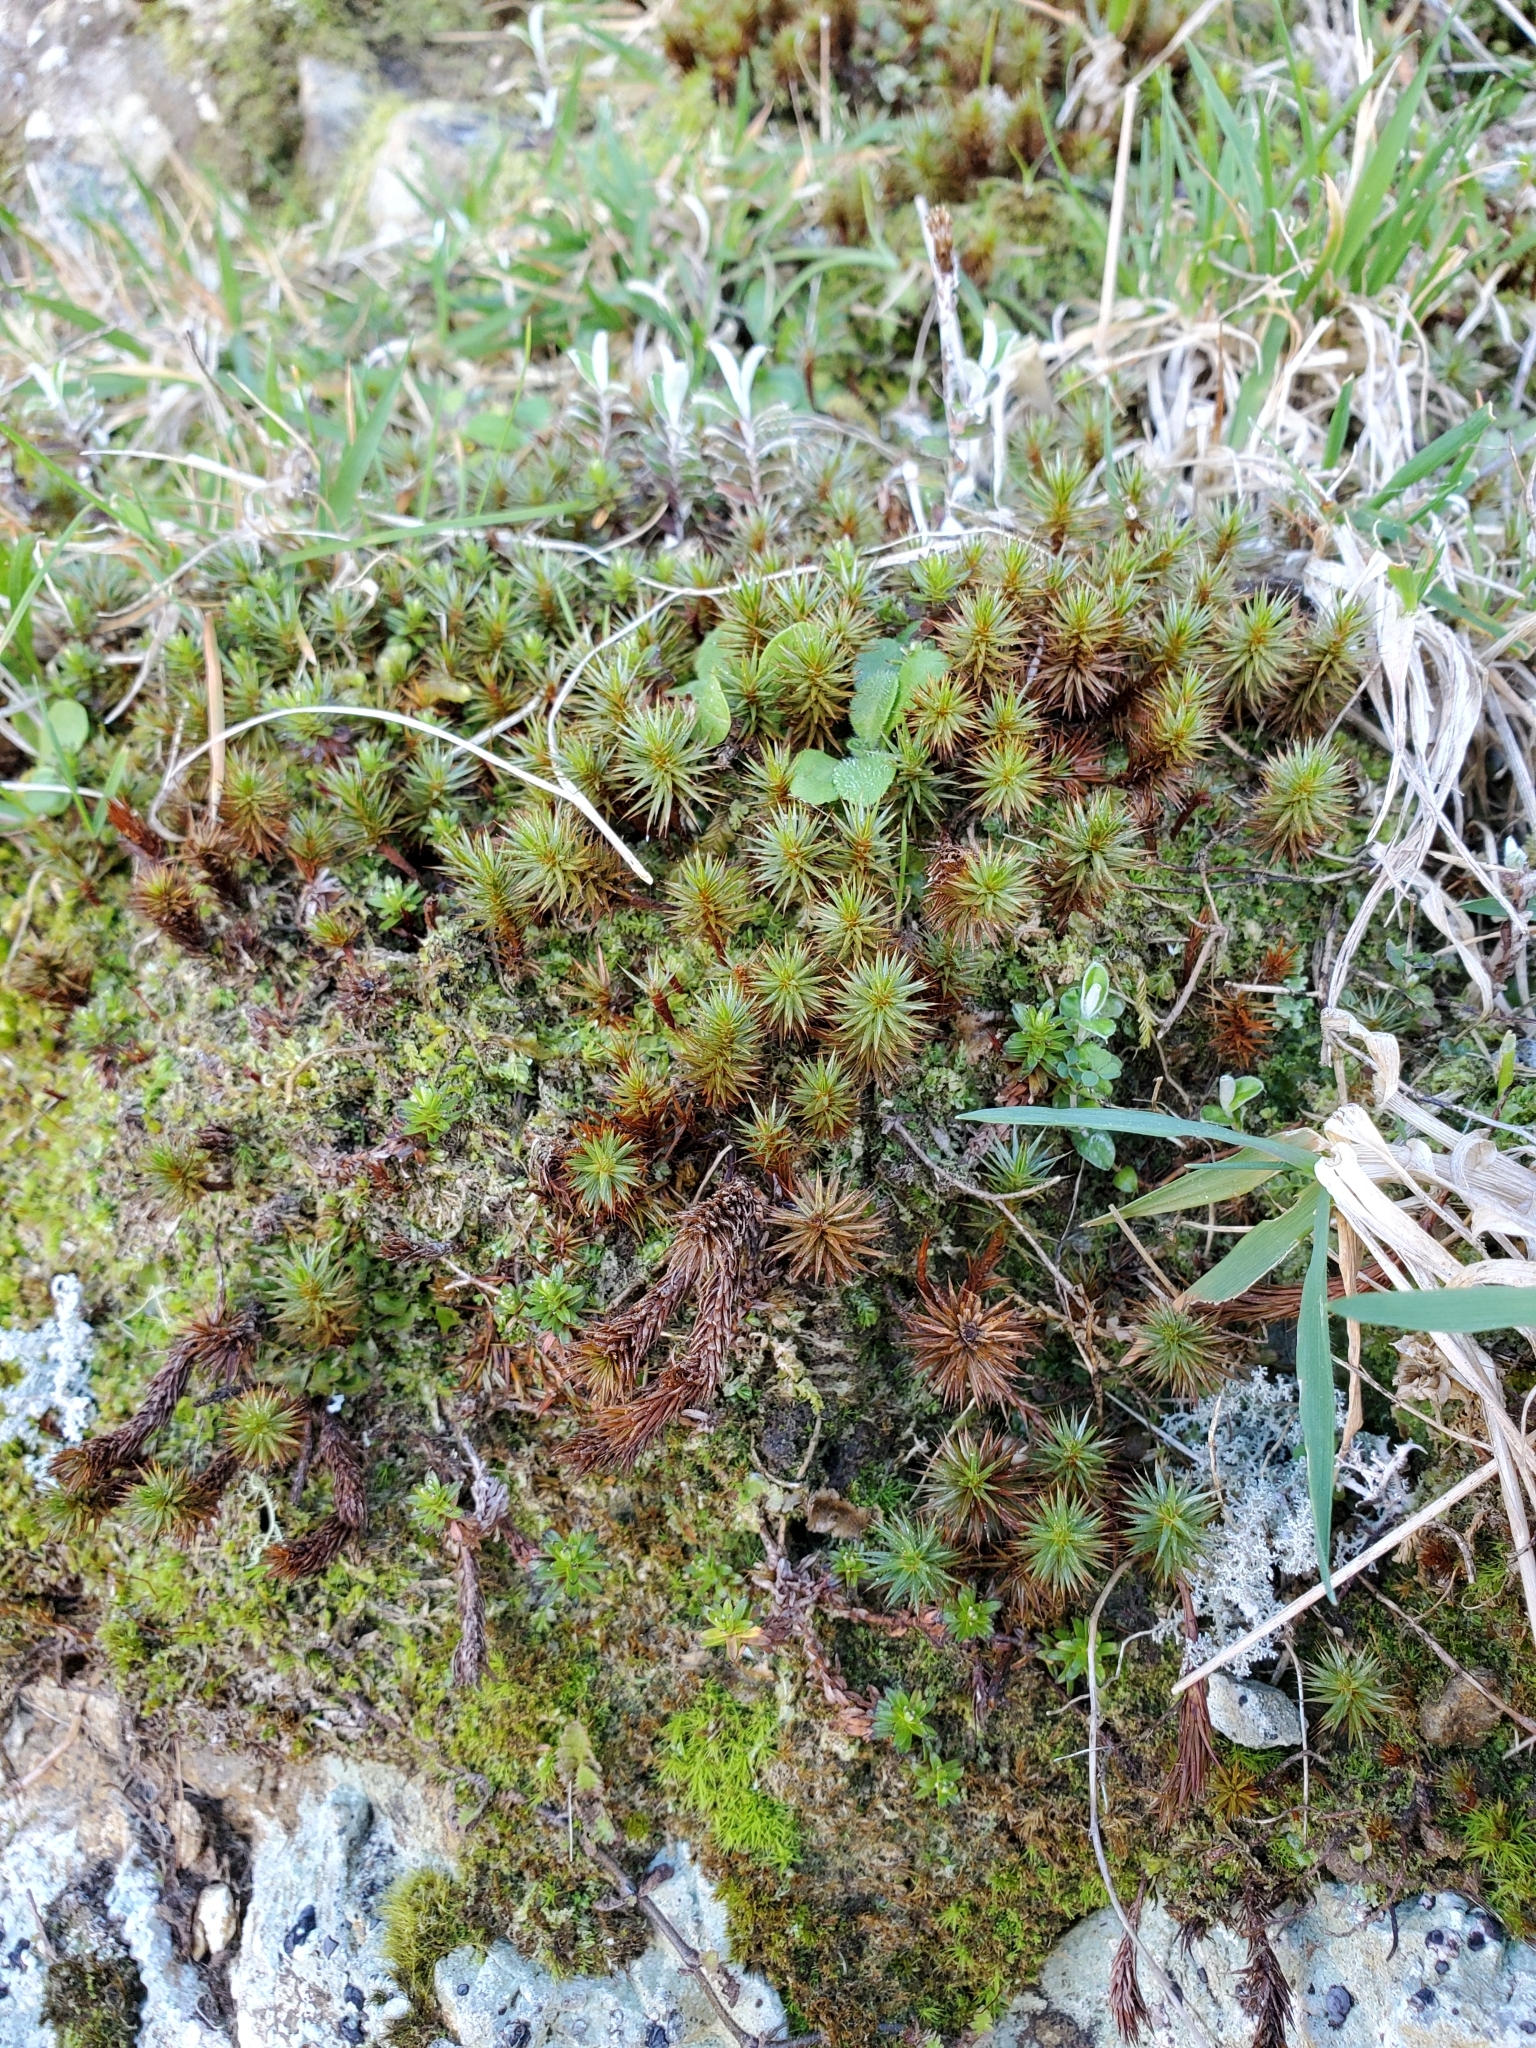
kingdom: Plantae
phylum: Bryophyta
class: Polytrichopsida
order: Polytrichales
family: Polytrichaceae
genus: Polytrichum
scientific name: Polytrichum juniperinum
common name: Juniper haircap moss
